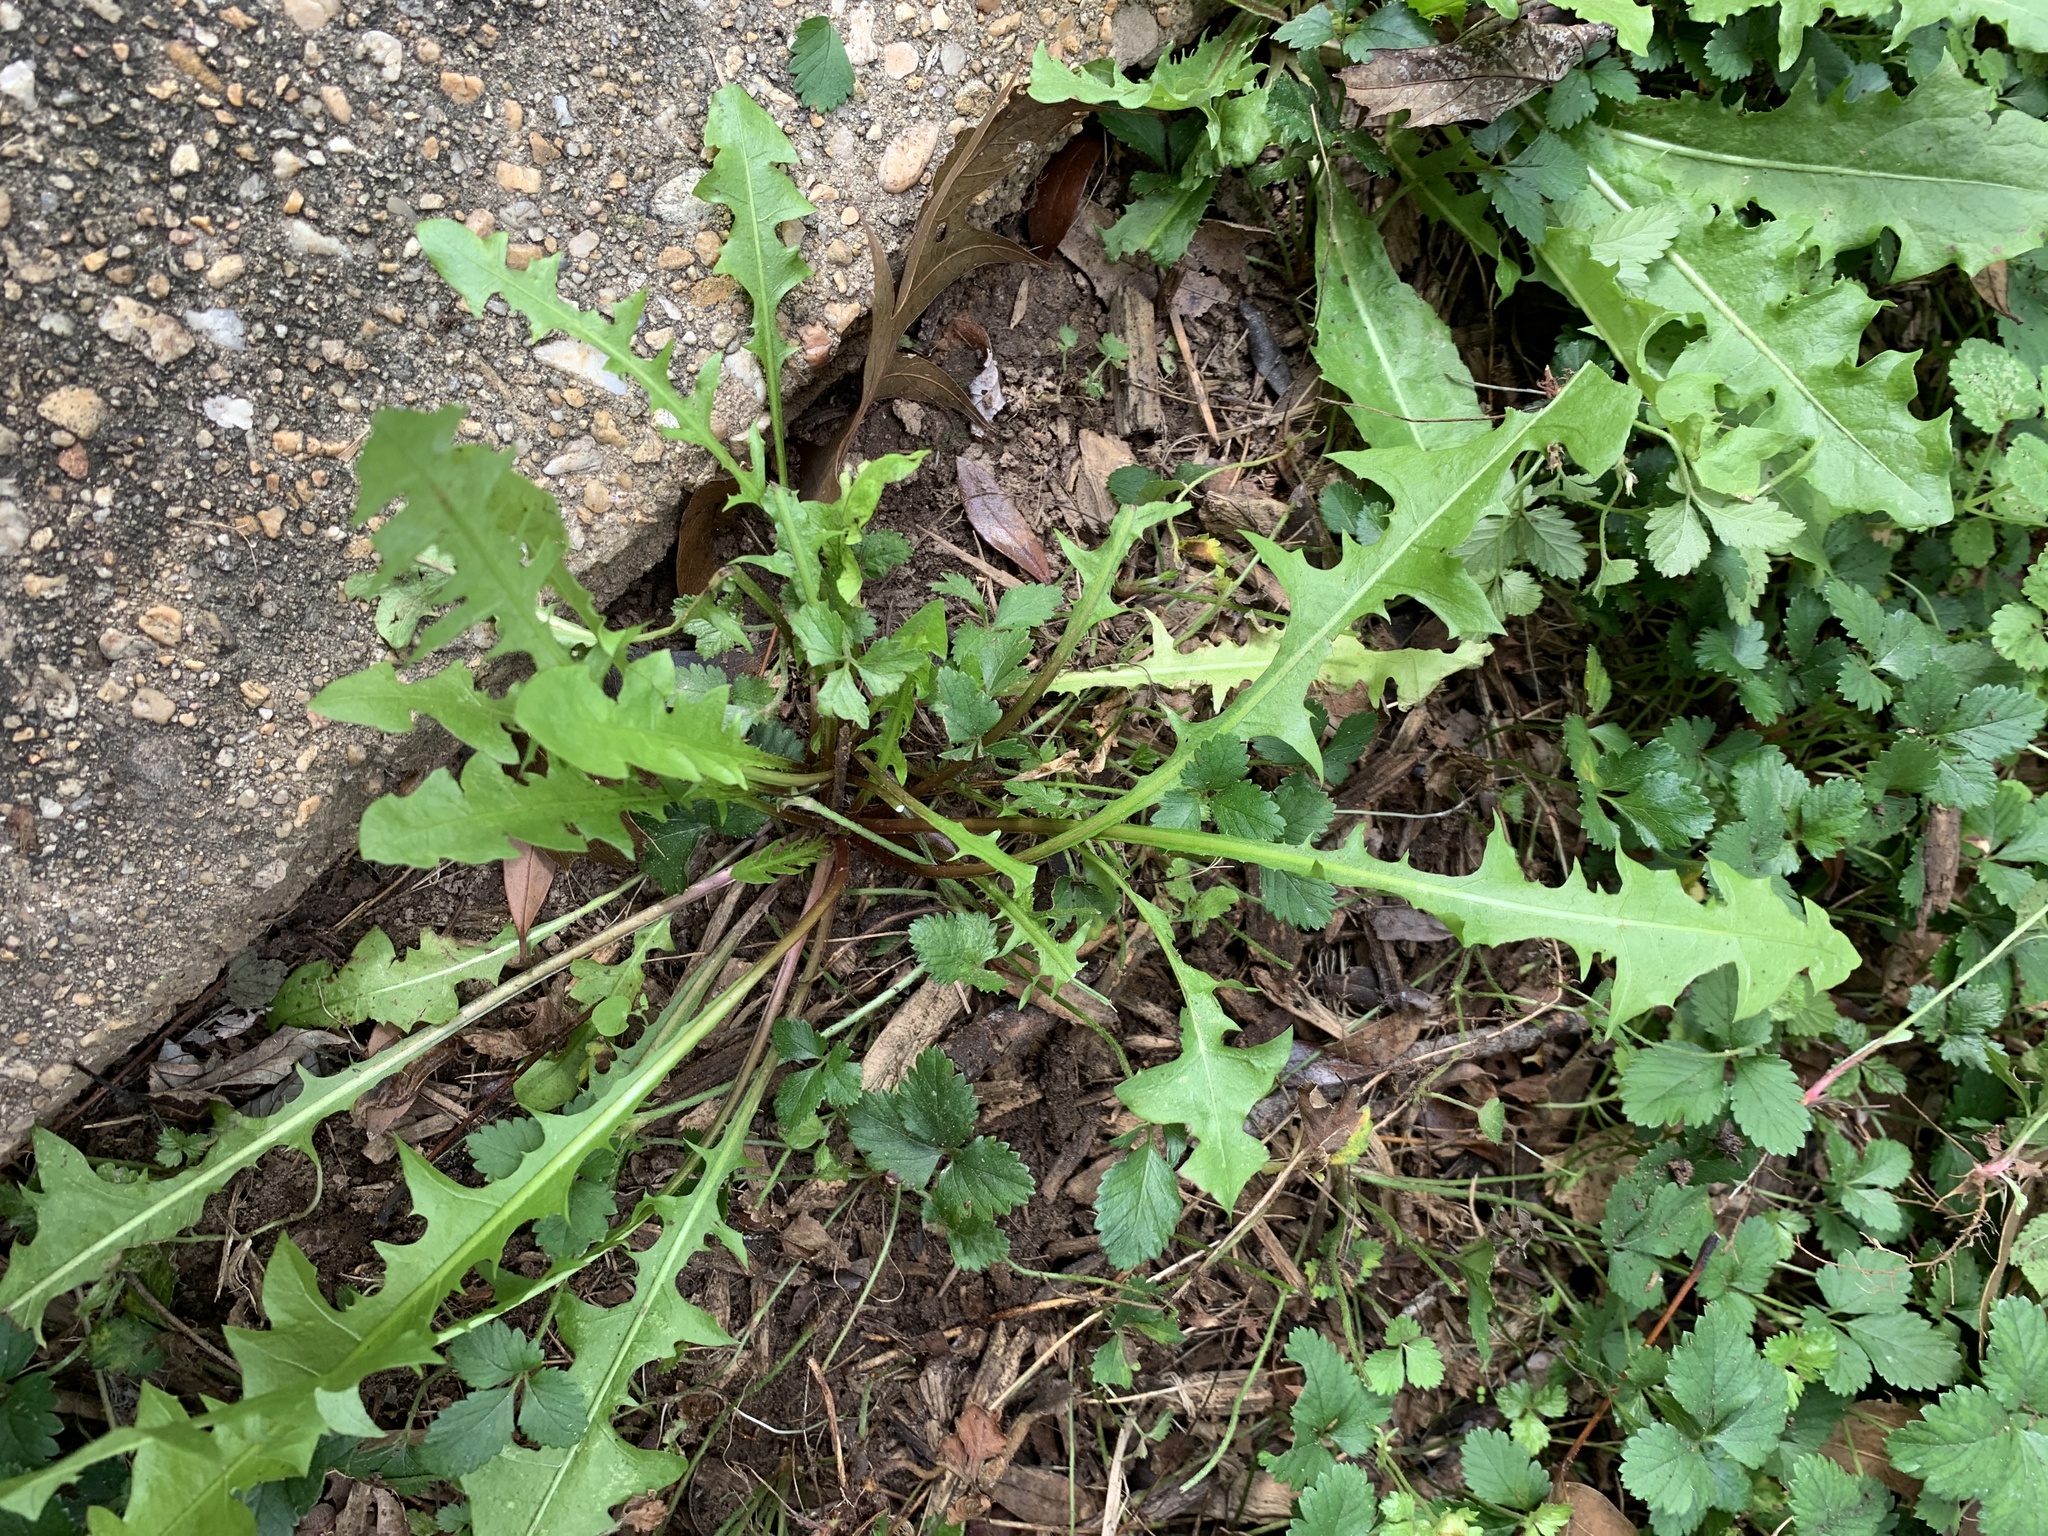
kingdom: Plantae
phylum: Tracheophyta
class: Magnoliopsida
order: Asterales
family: Asteraceae
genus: Taraxacum
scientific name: Taraxacum officinale
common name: Common dandelion
